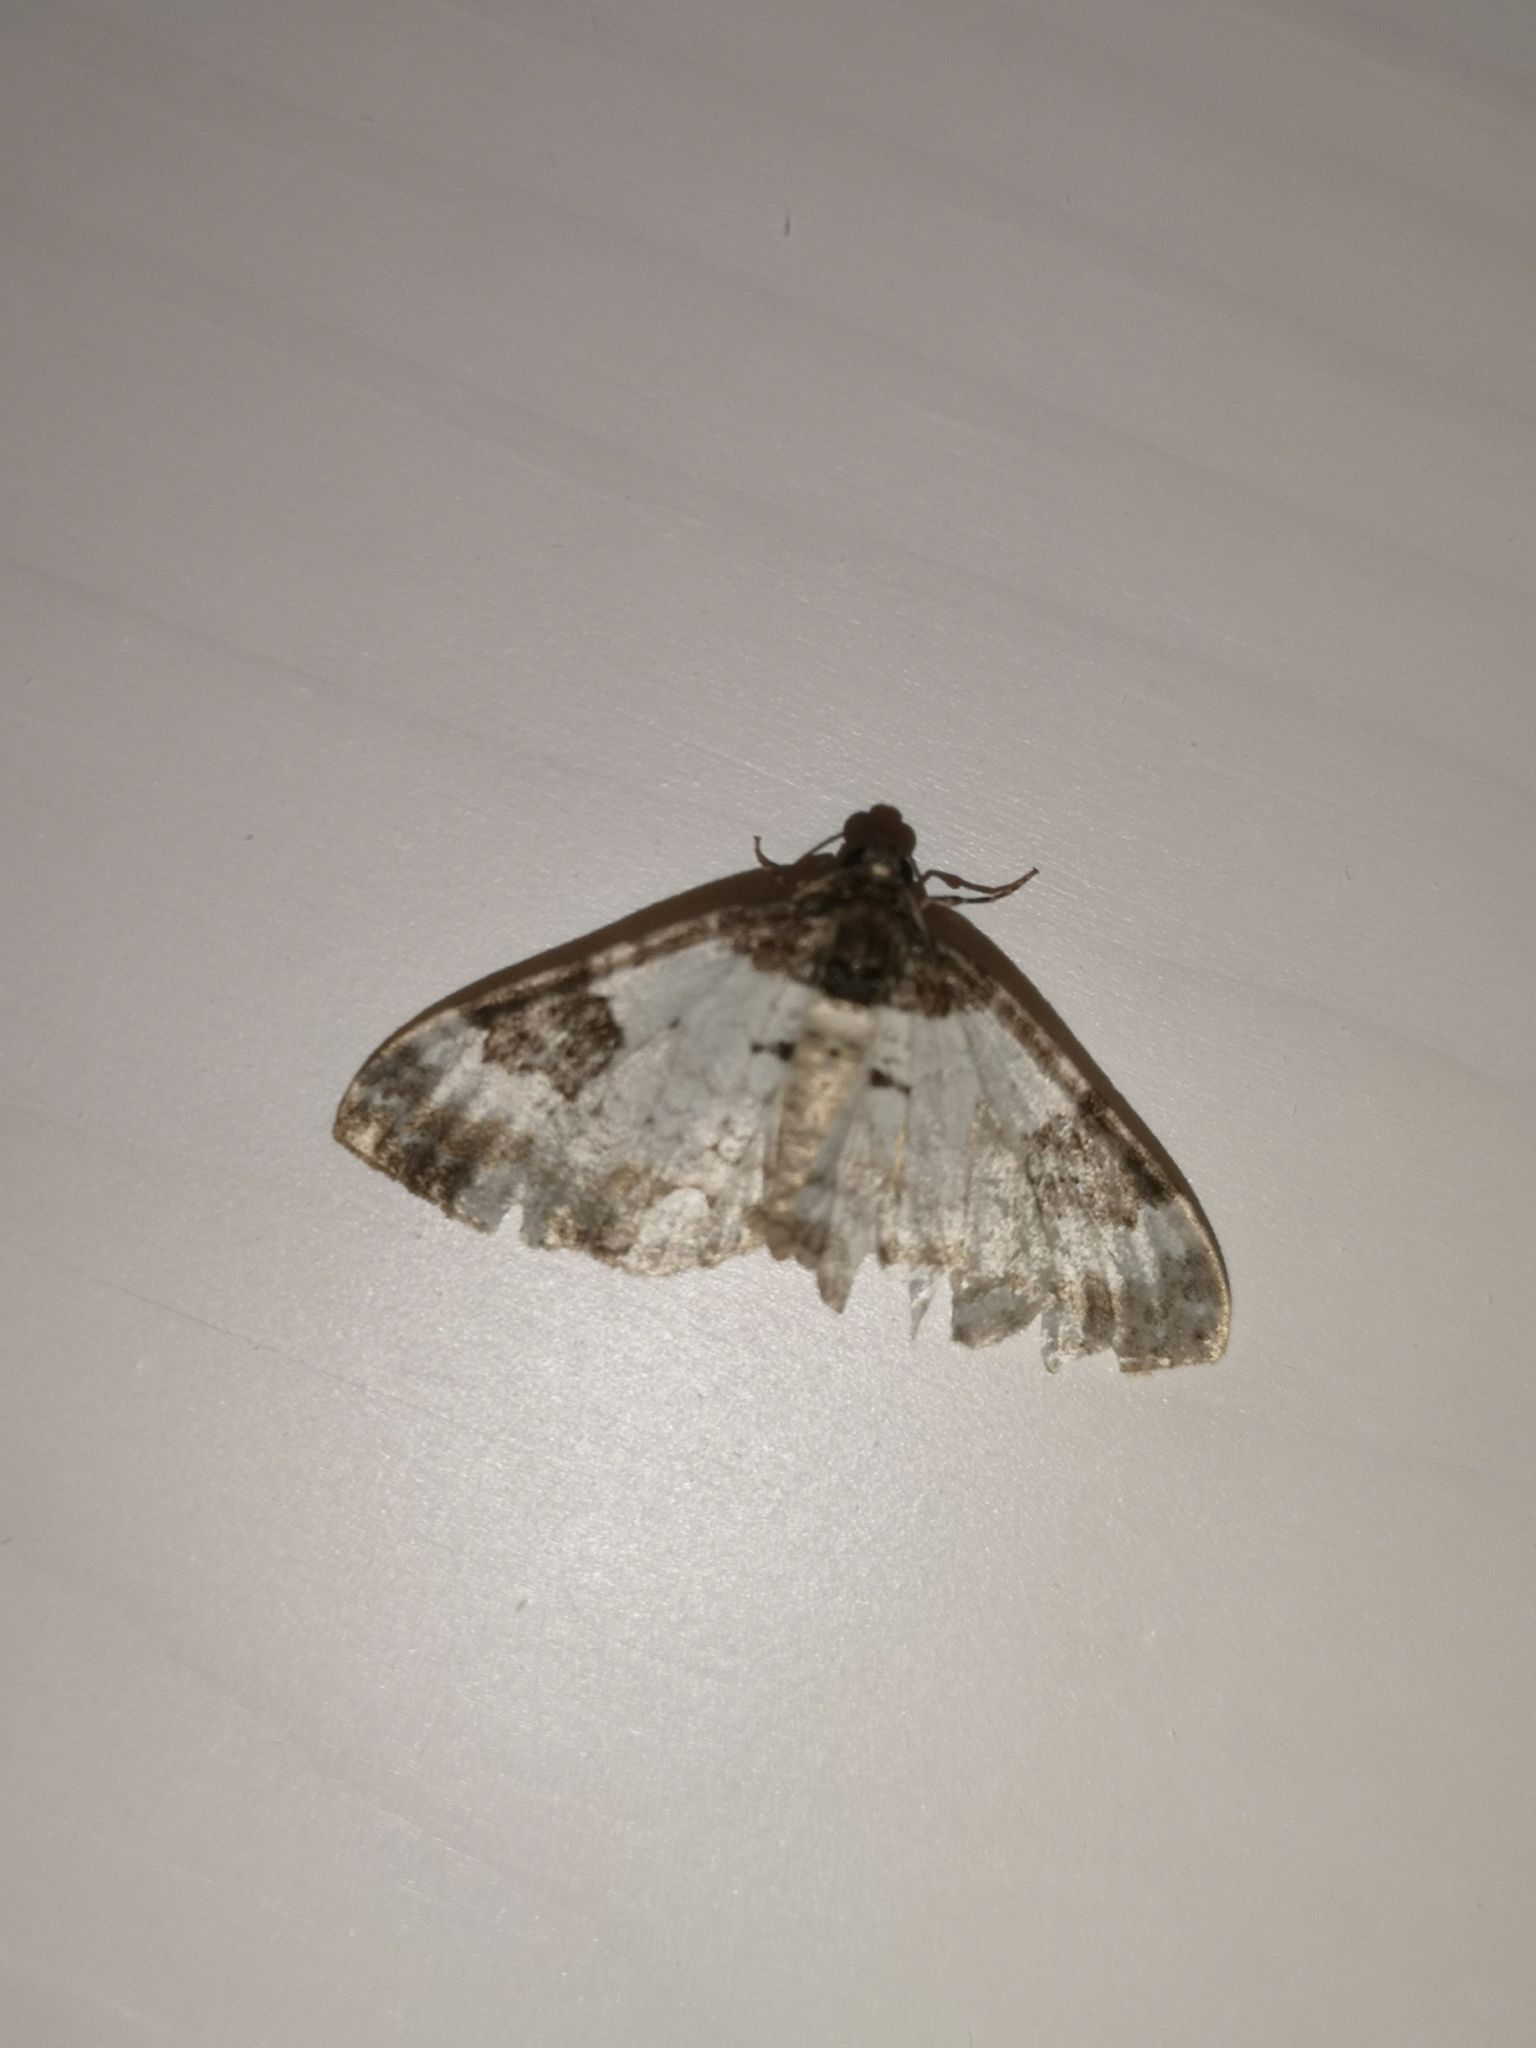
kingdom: Animalia
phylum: Arthropoda
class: Insecta
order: Lepidoptera
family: Geometridae
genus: Melanthia
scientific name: Melanthia procellata
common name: Pretty chalk carpet
